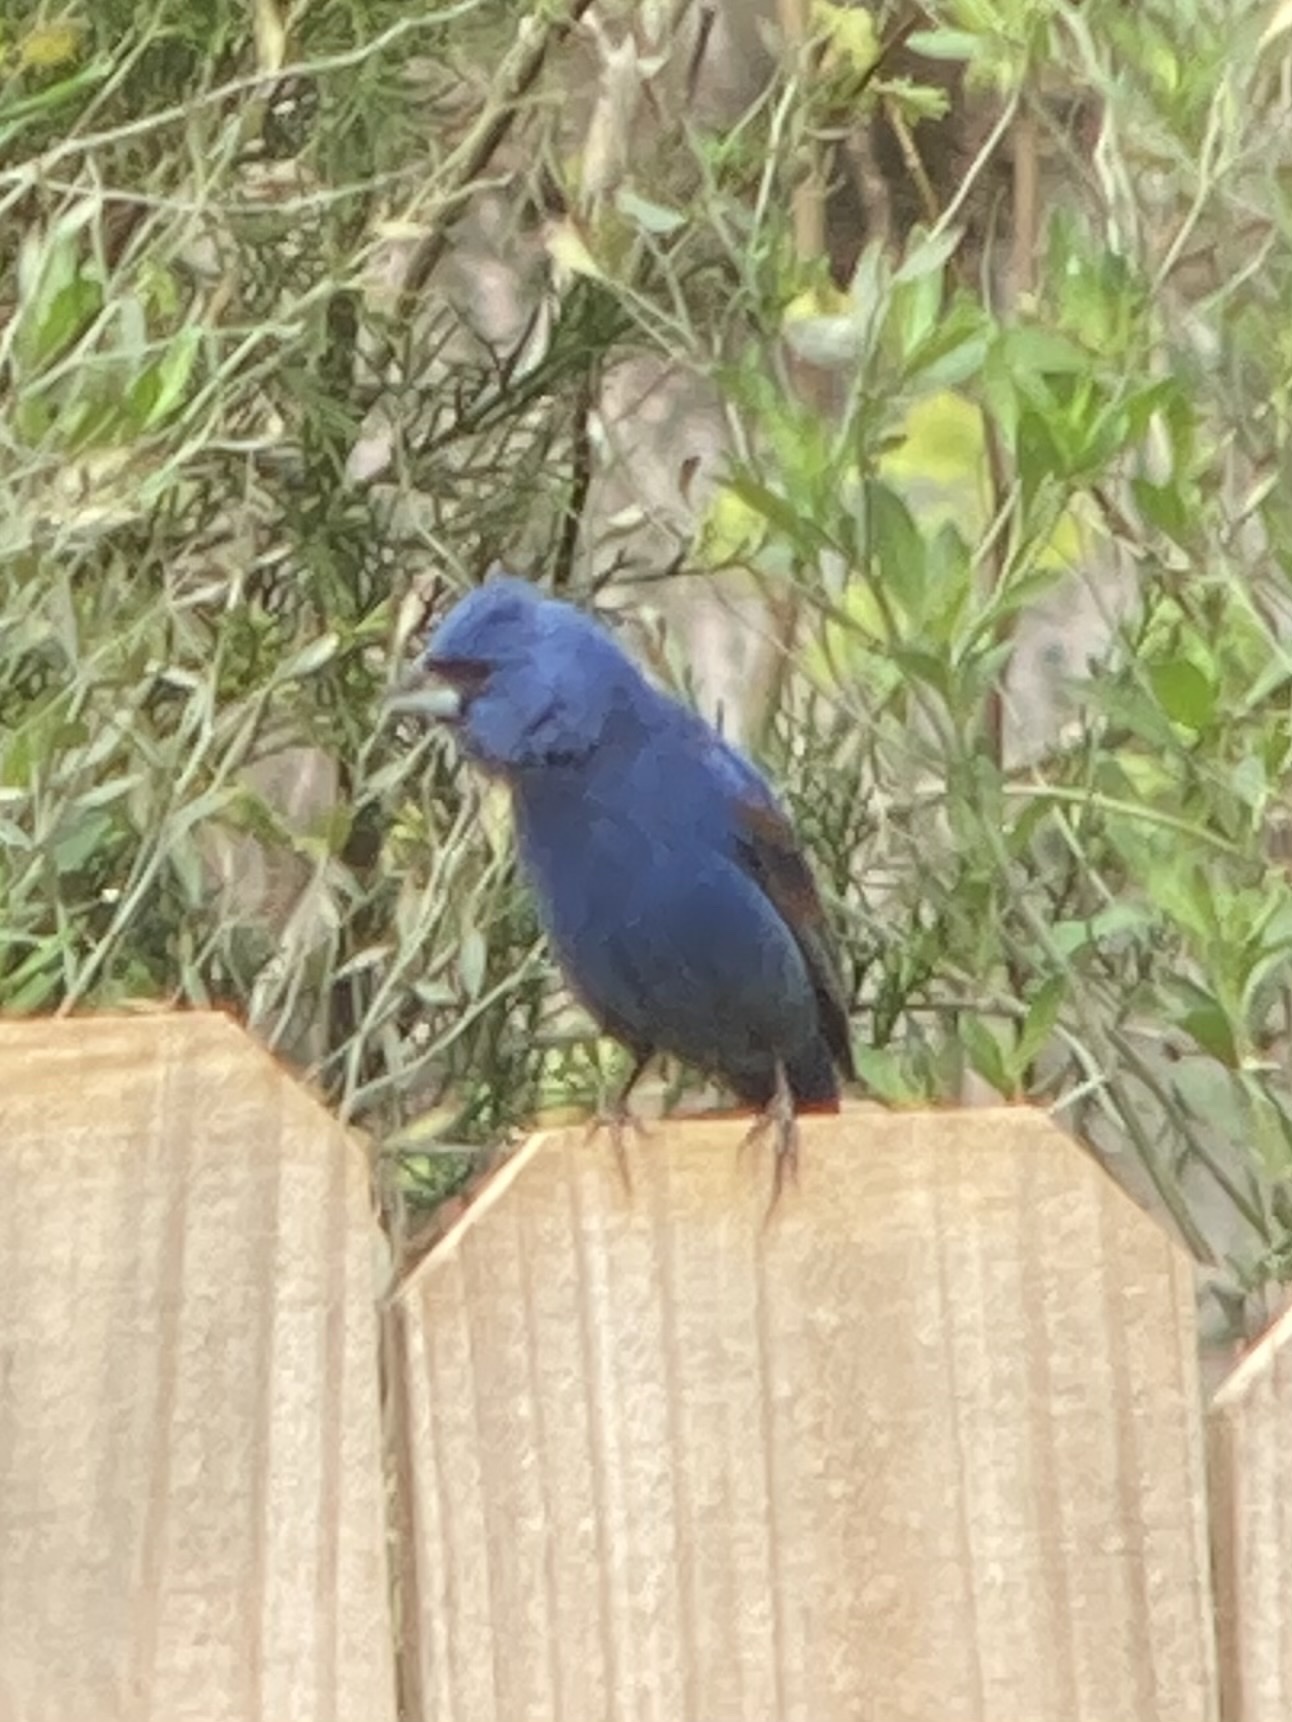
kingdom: Animalia
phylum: Chordata
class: Aves
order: Passeriformes
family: Cardinalidae
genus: Passerina
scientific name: Passerina caerulea
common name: Blue grosbeak
